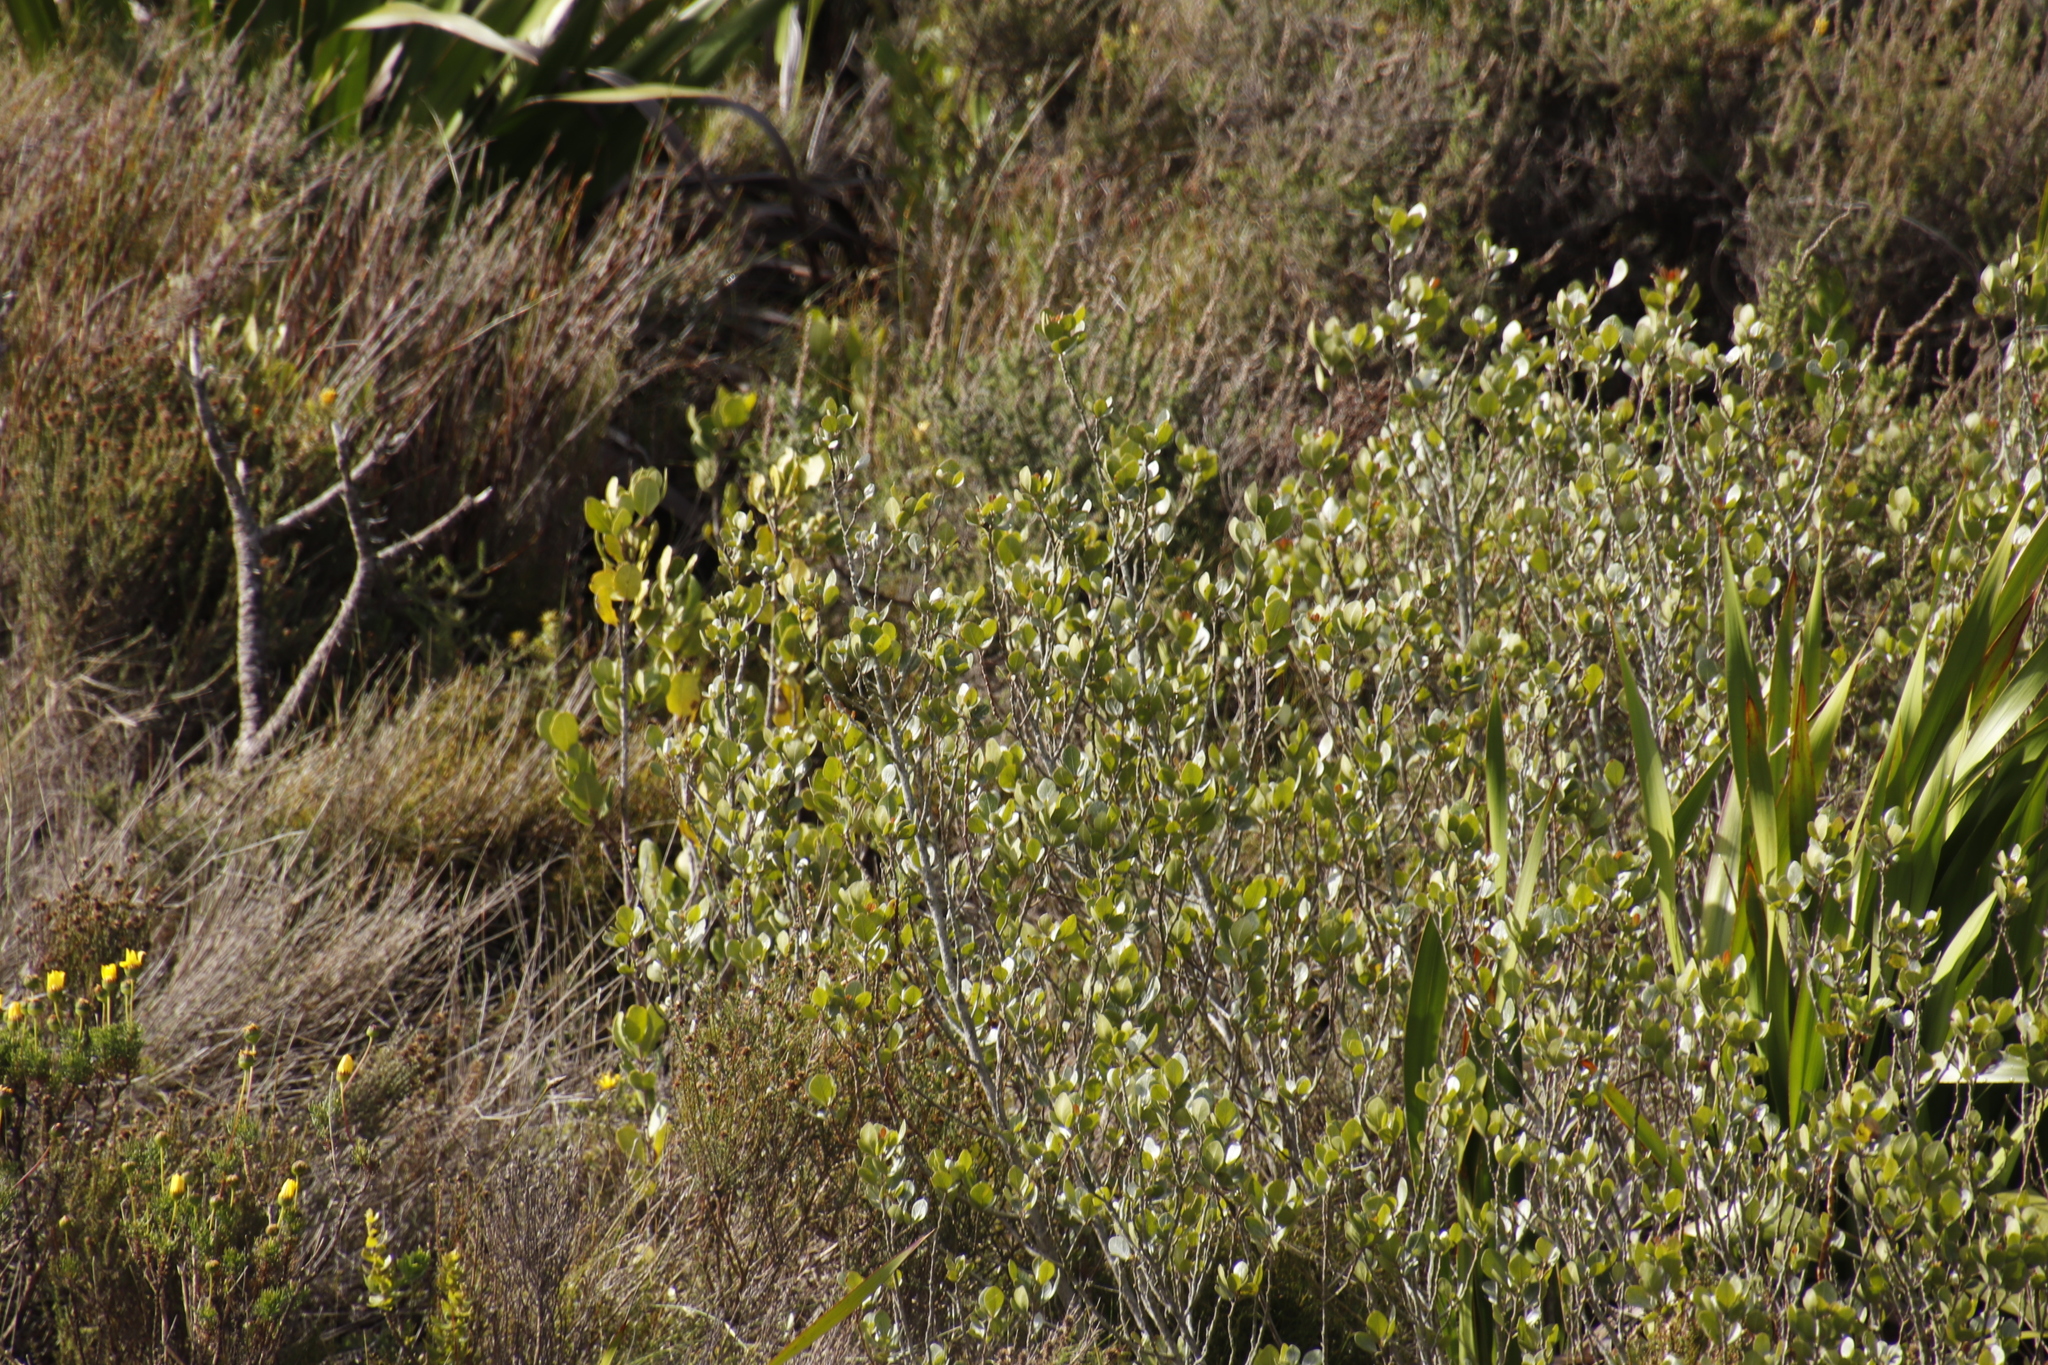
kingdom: Plantae
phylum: Tracheophyta
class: Magnoliopsida
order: Sapindales
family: Anacardiaceae
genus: Searsia
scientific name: Searsia lucida
